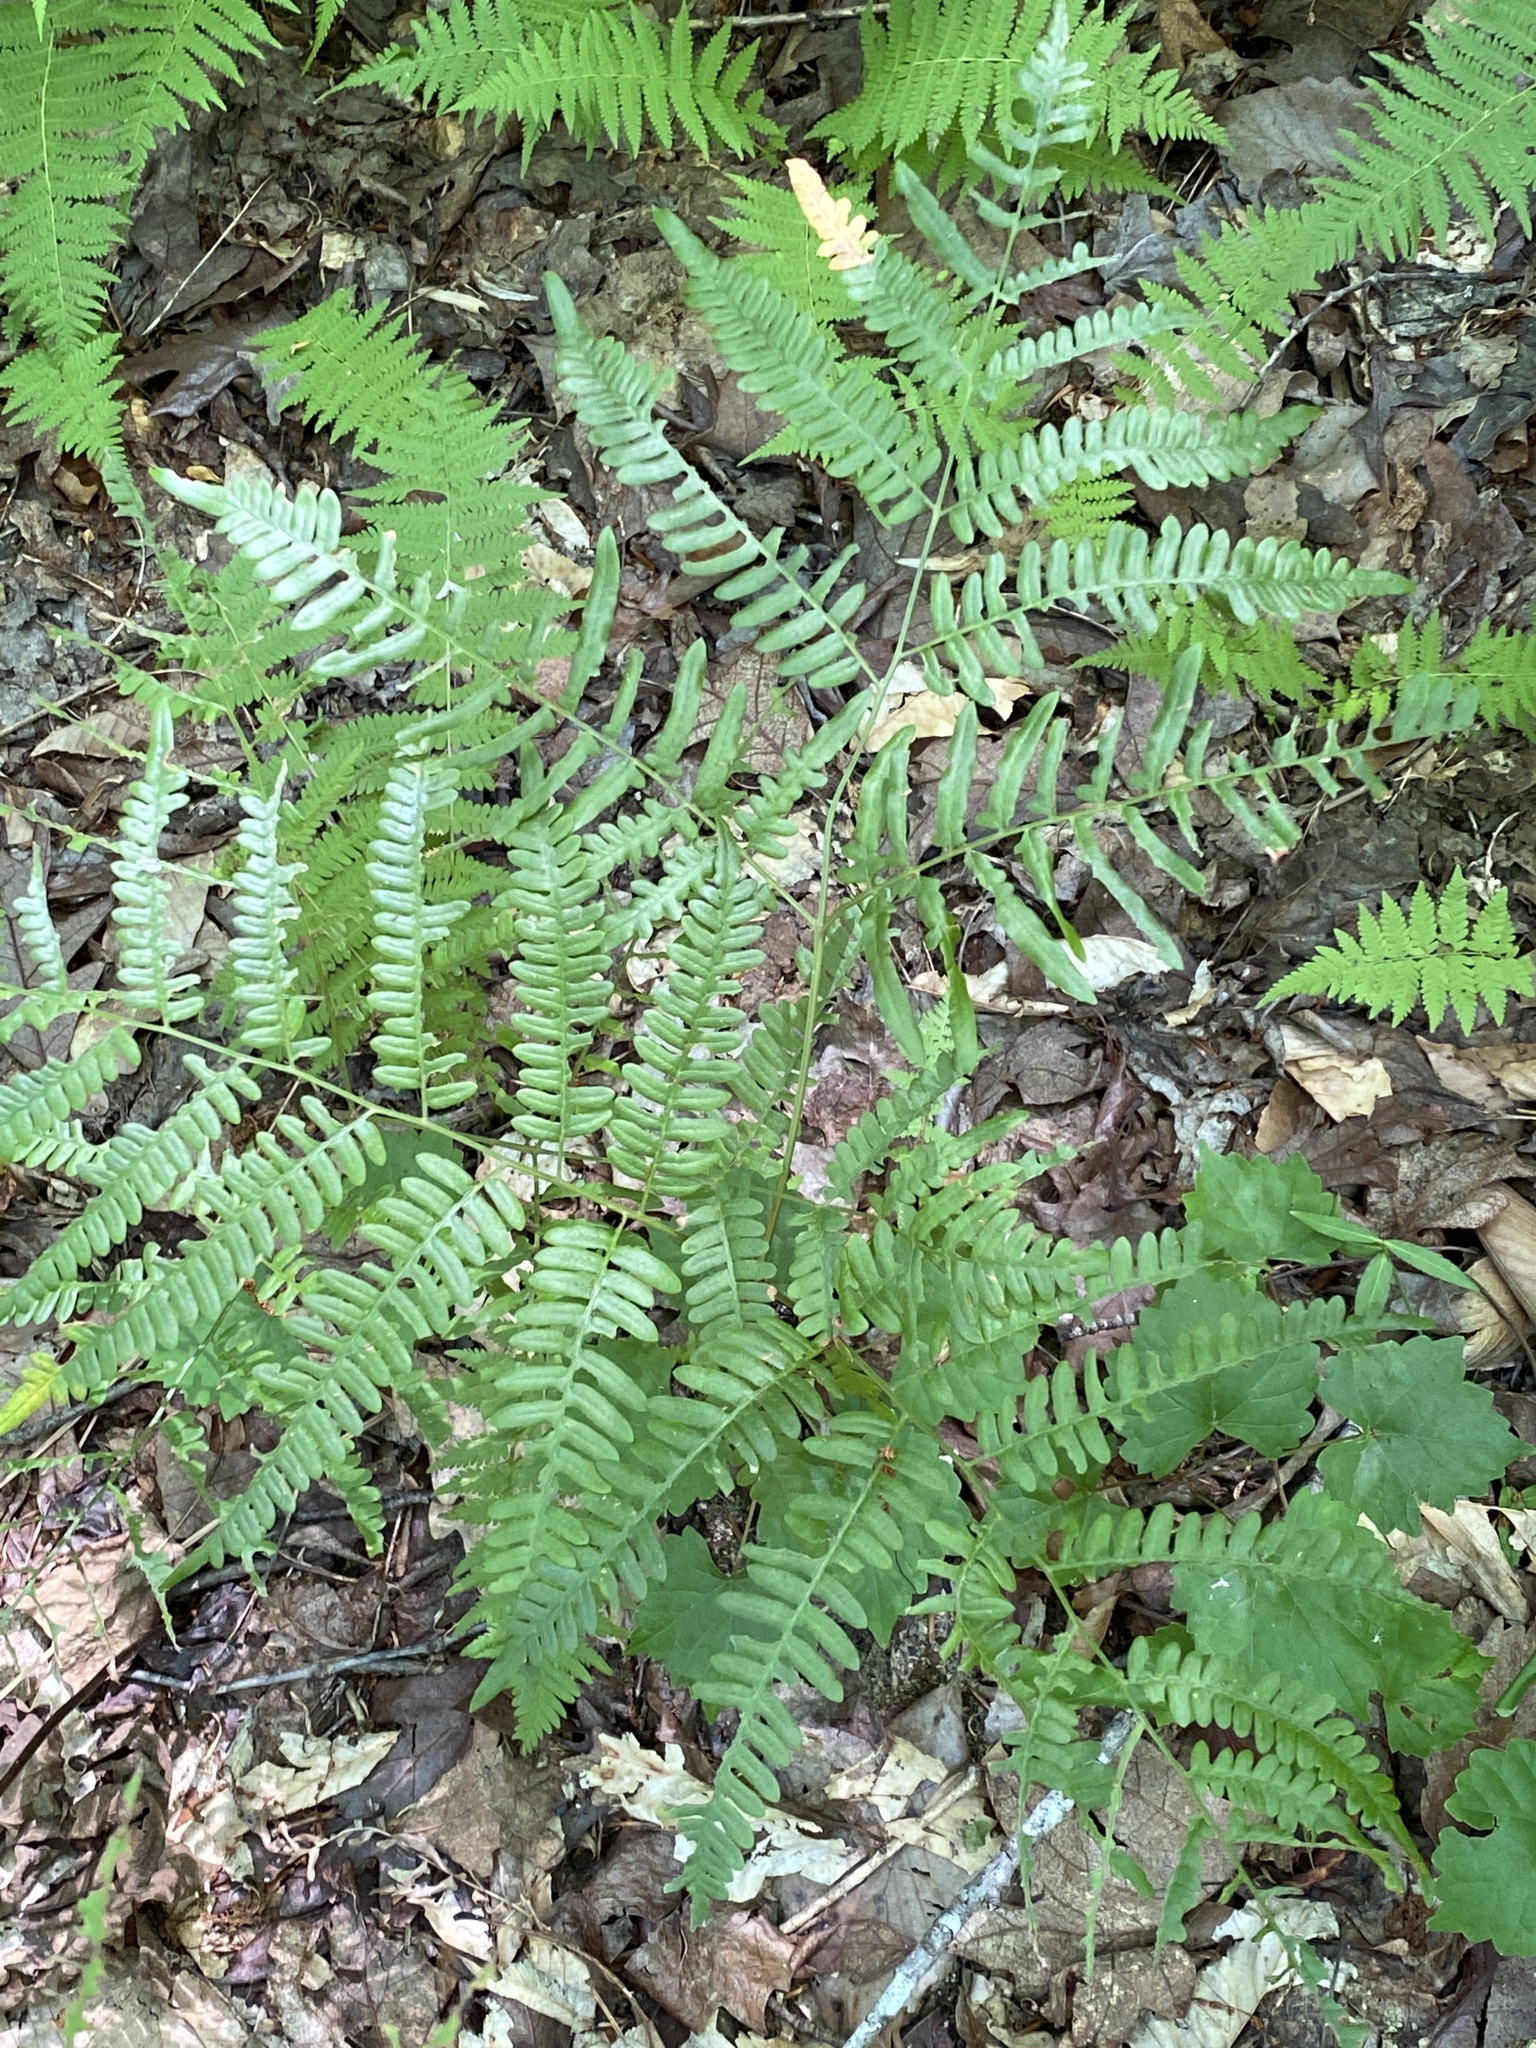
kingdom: Plantae
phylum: Tracheophyta
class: Polypodiopsida
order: Polypodiales
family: Dennstaedtiaceae
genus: Pteridium
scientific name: Pteridium aquilinum
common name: Bracken
